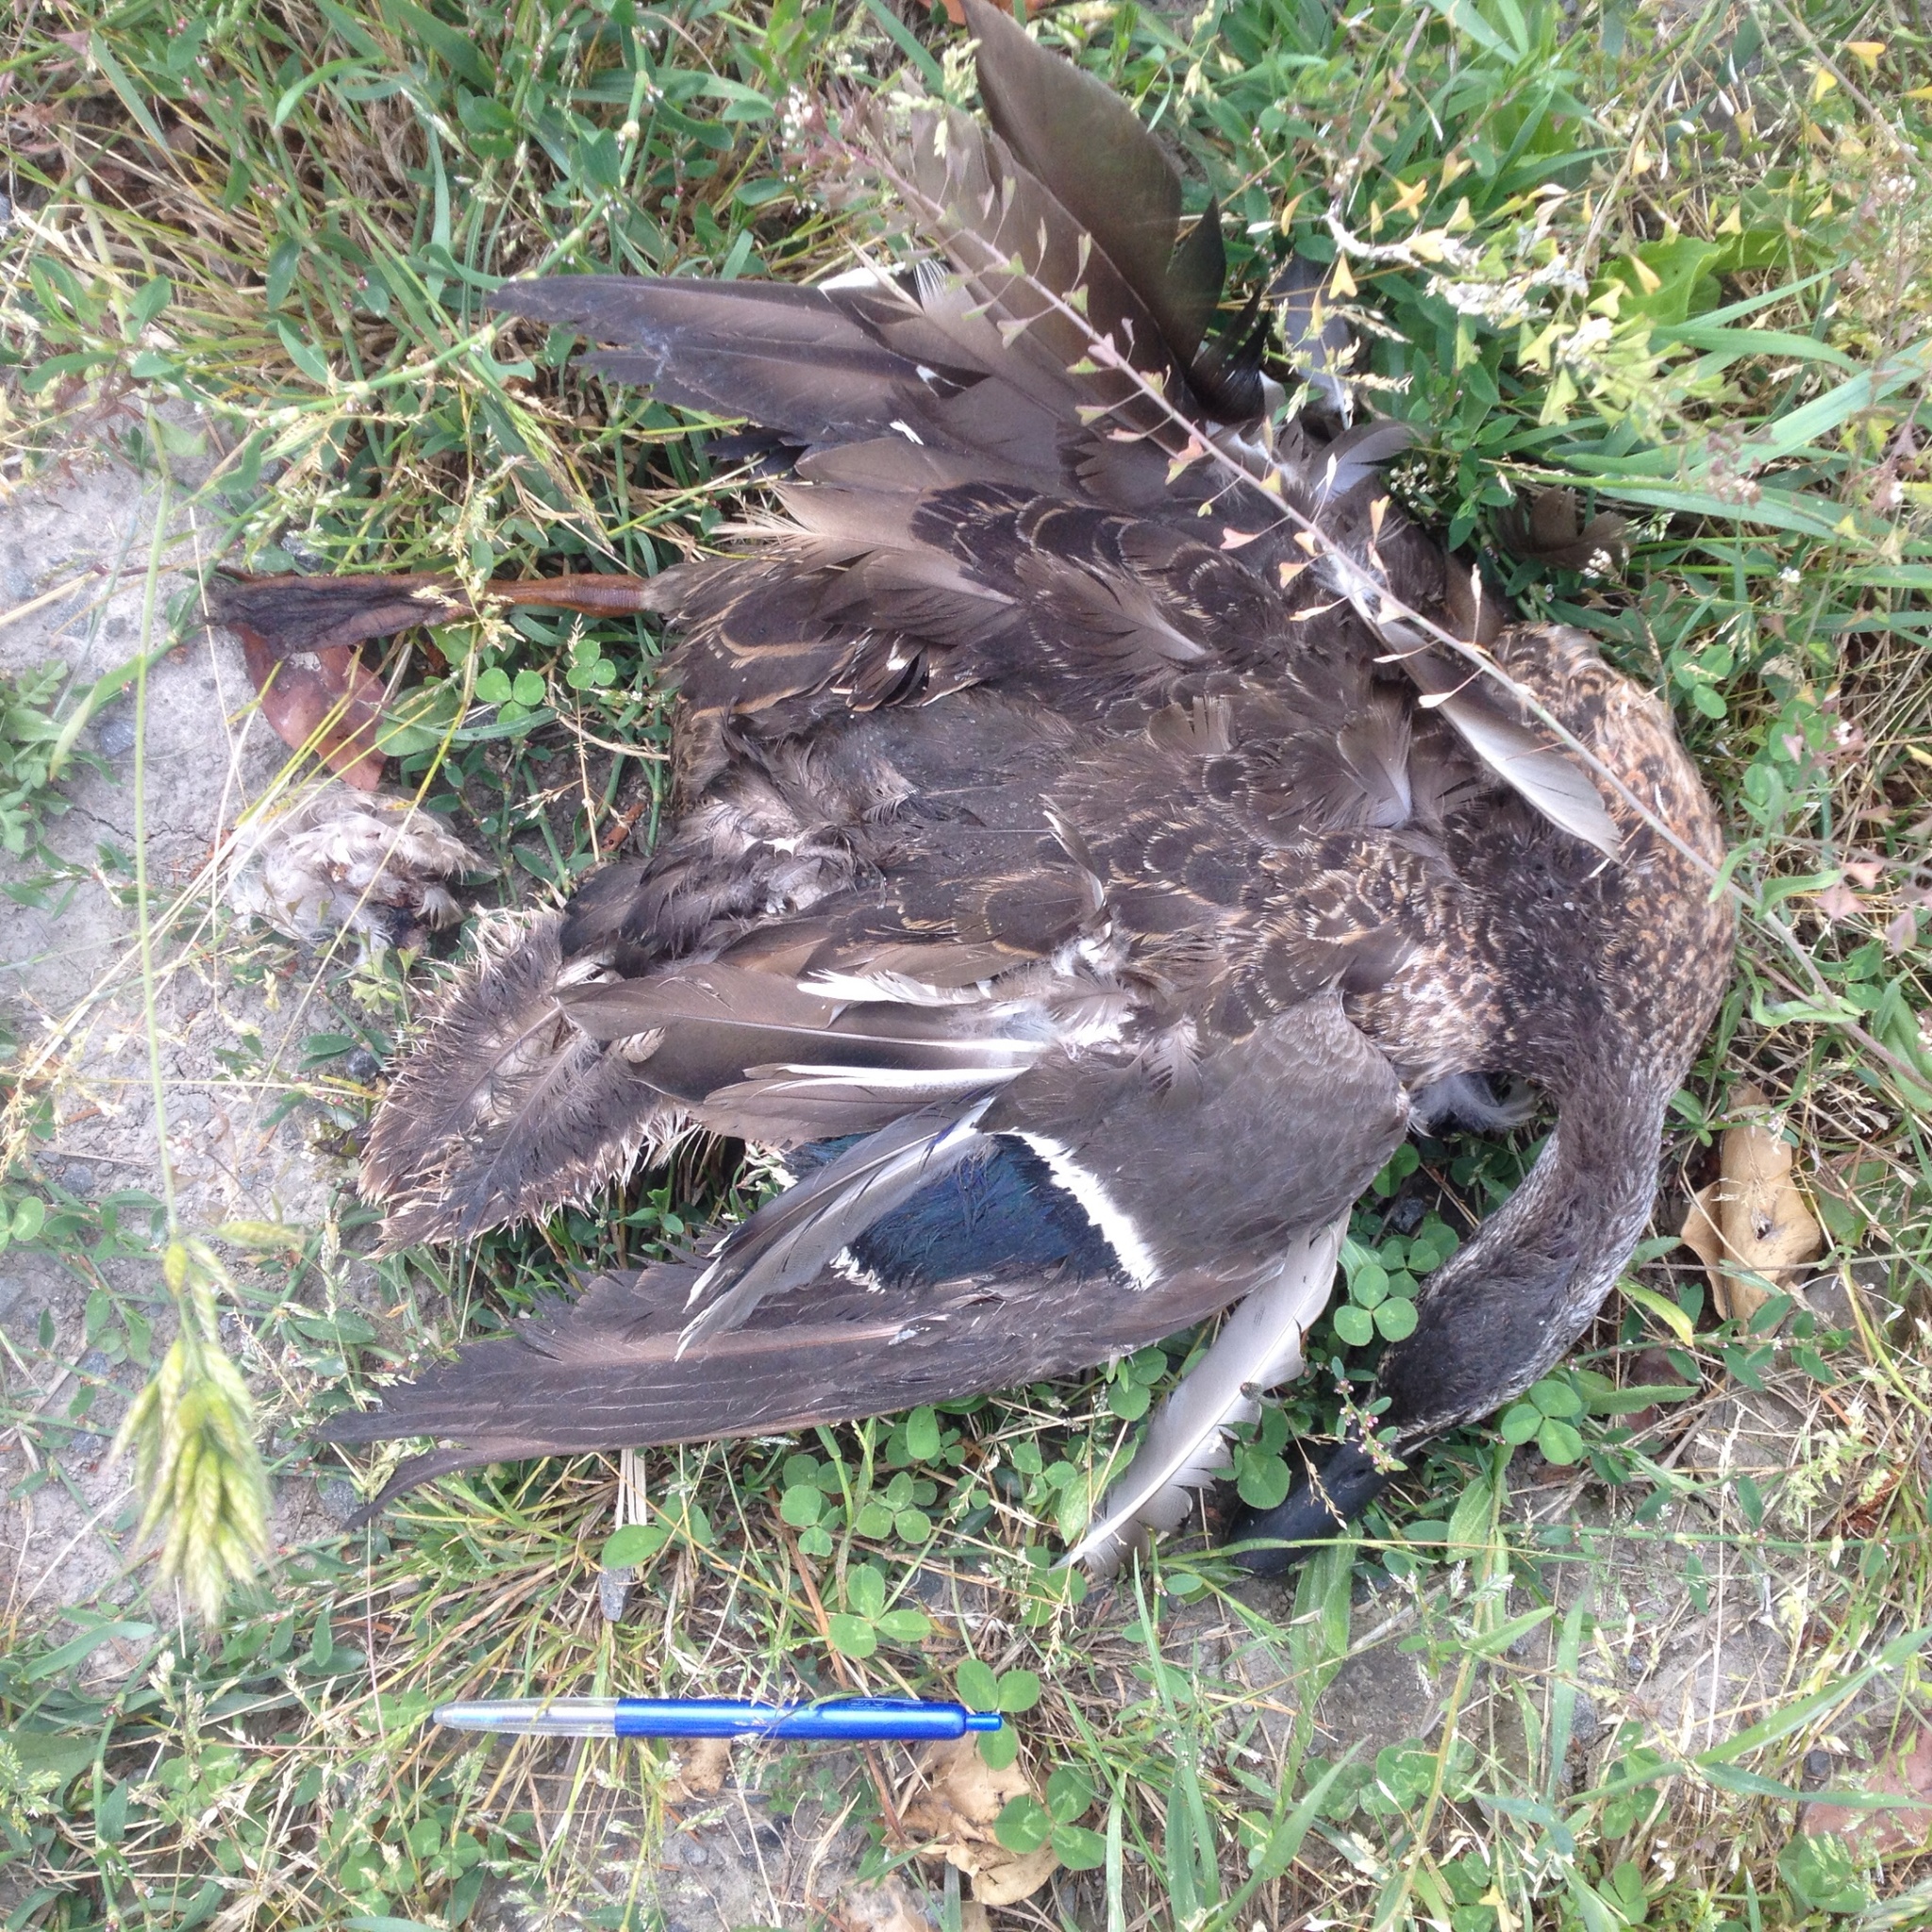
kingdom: Animalia
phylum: Chordata
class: Aves
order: Anseriformes
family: Anatidae
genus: Anas
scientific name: Anas platyrhynchos
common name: Mallard
